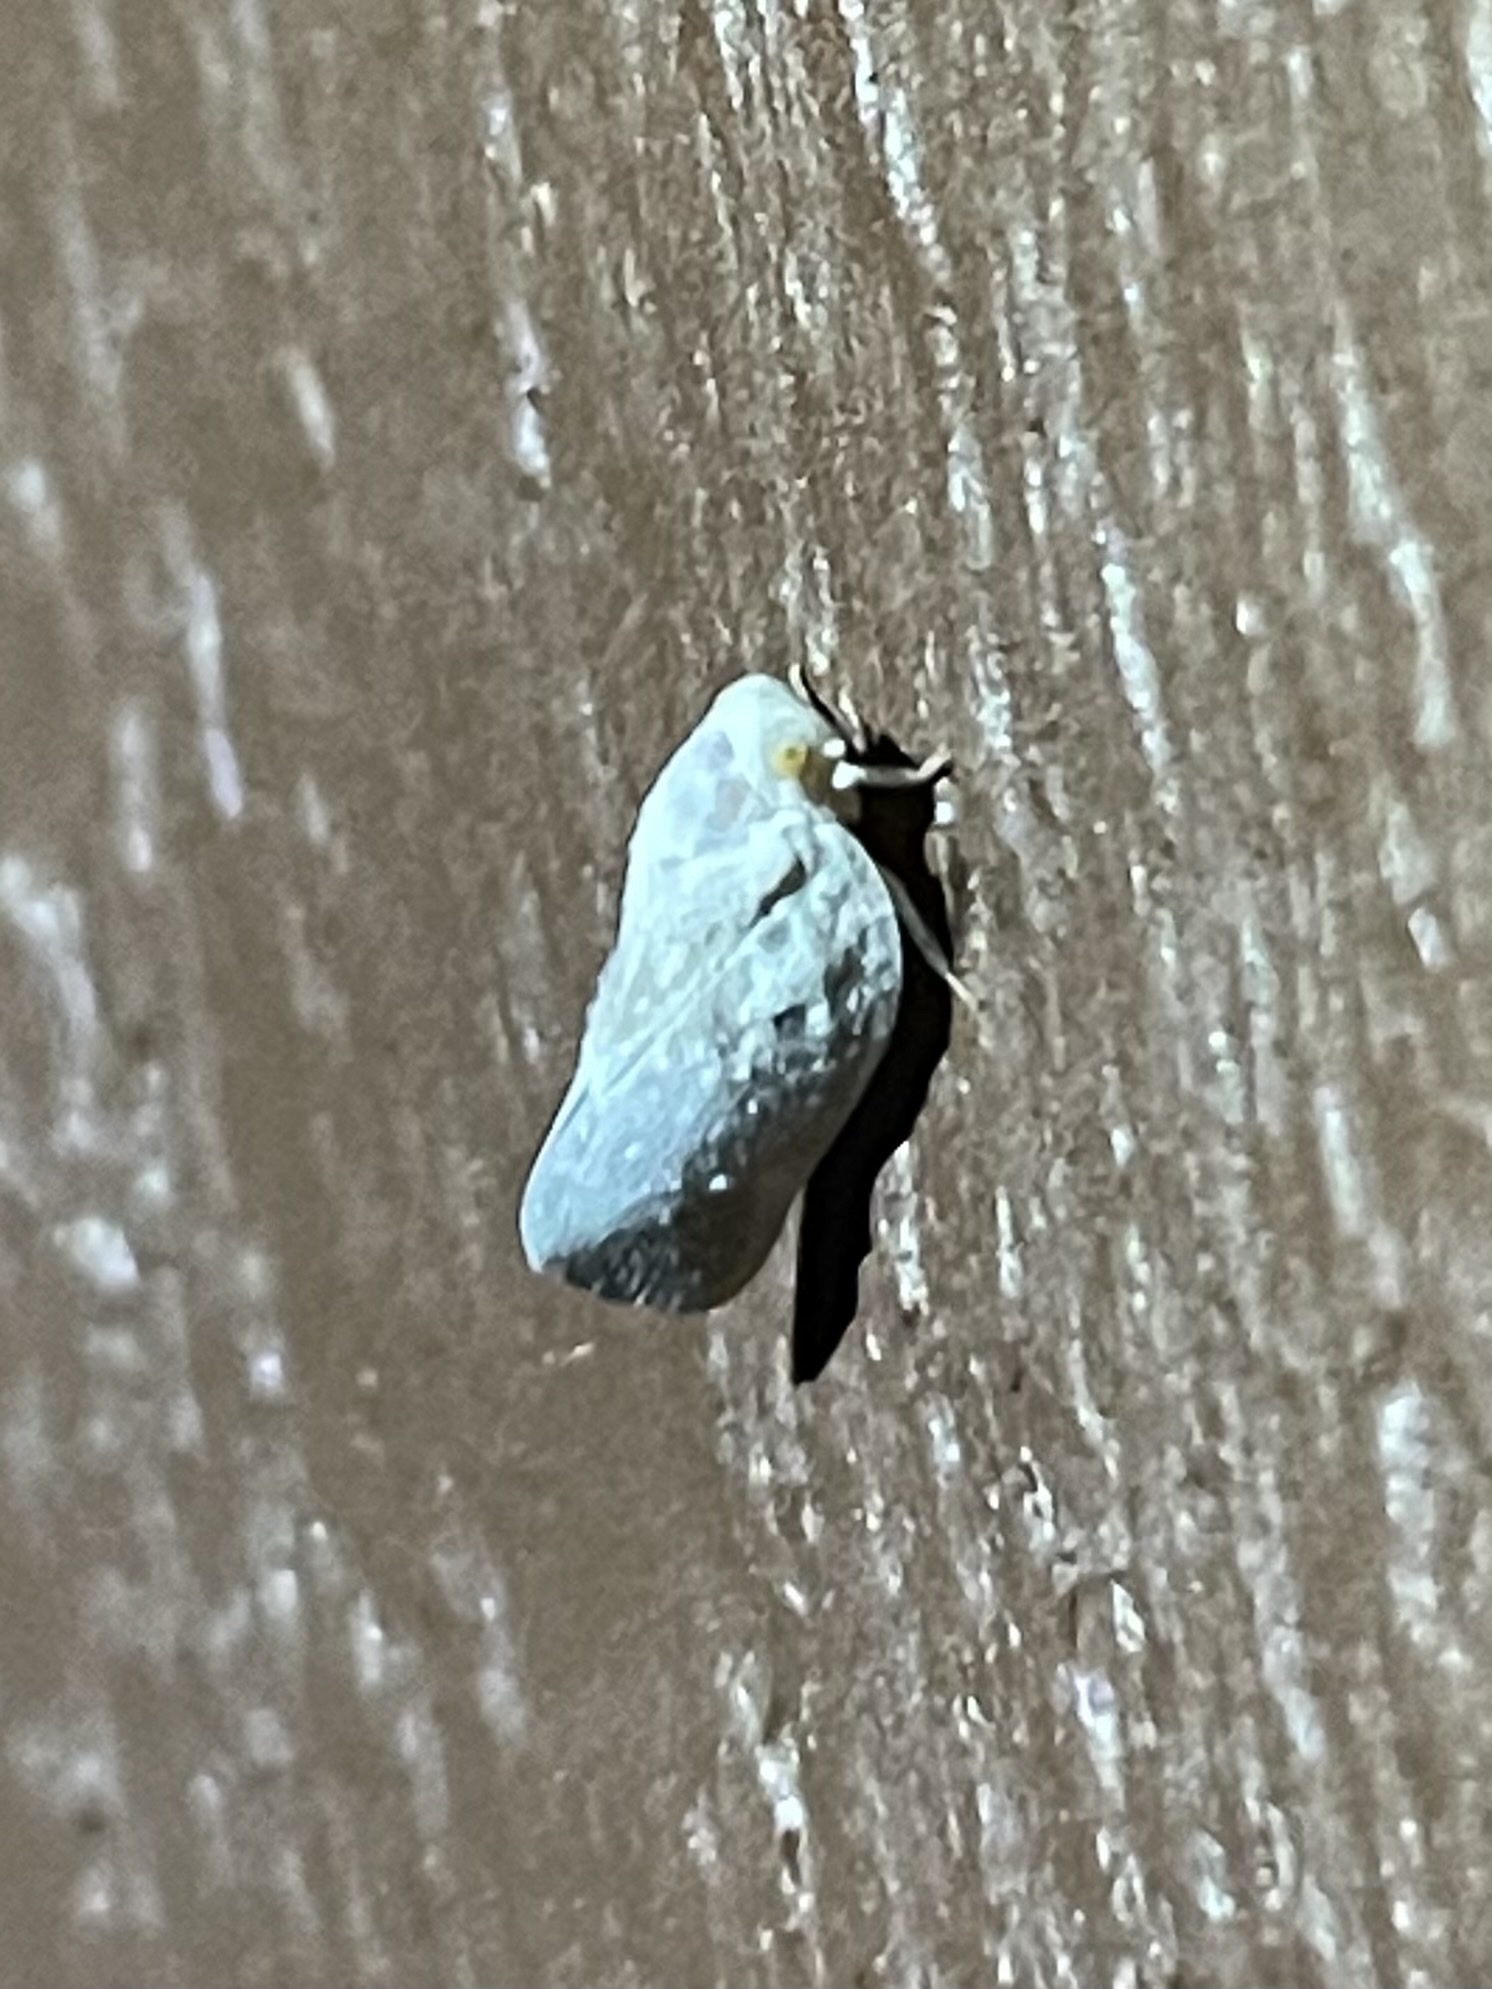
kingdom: Animalia
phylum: Arthropoda
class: Insecta
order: Hemiptera
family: Flatidae
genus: Metcalfa
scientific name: Metcalfa pruinosa
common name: Citrus flatid planthopper
